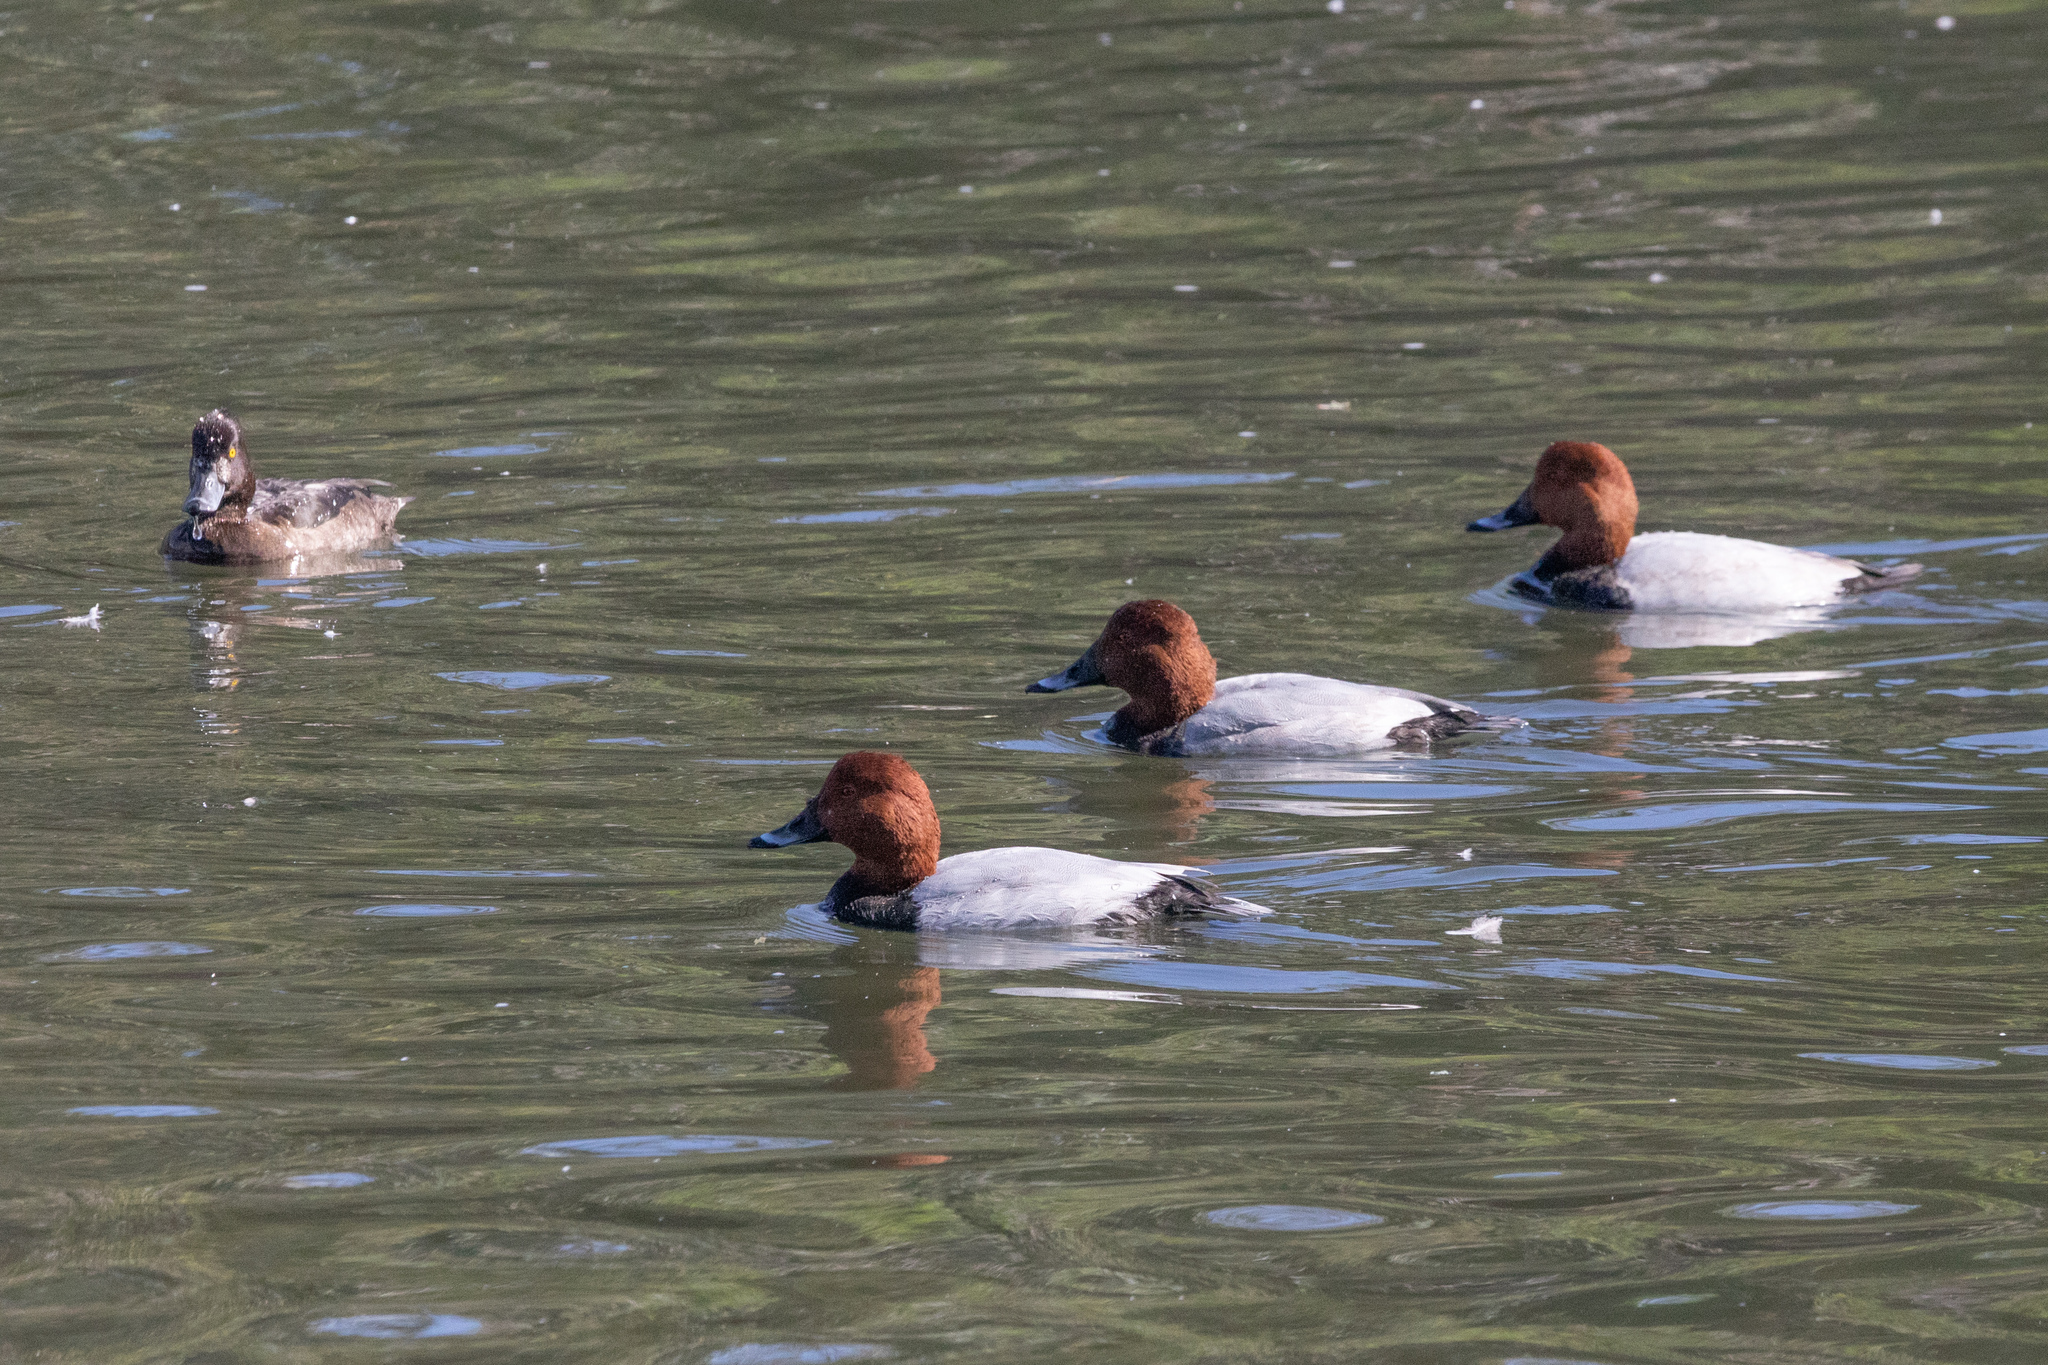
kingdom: Animalia
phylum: Chordata
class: Aves
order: Anseriformes
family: Anatidae
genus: Aythya
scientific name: Aythya ferina
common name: Common pochard
